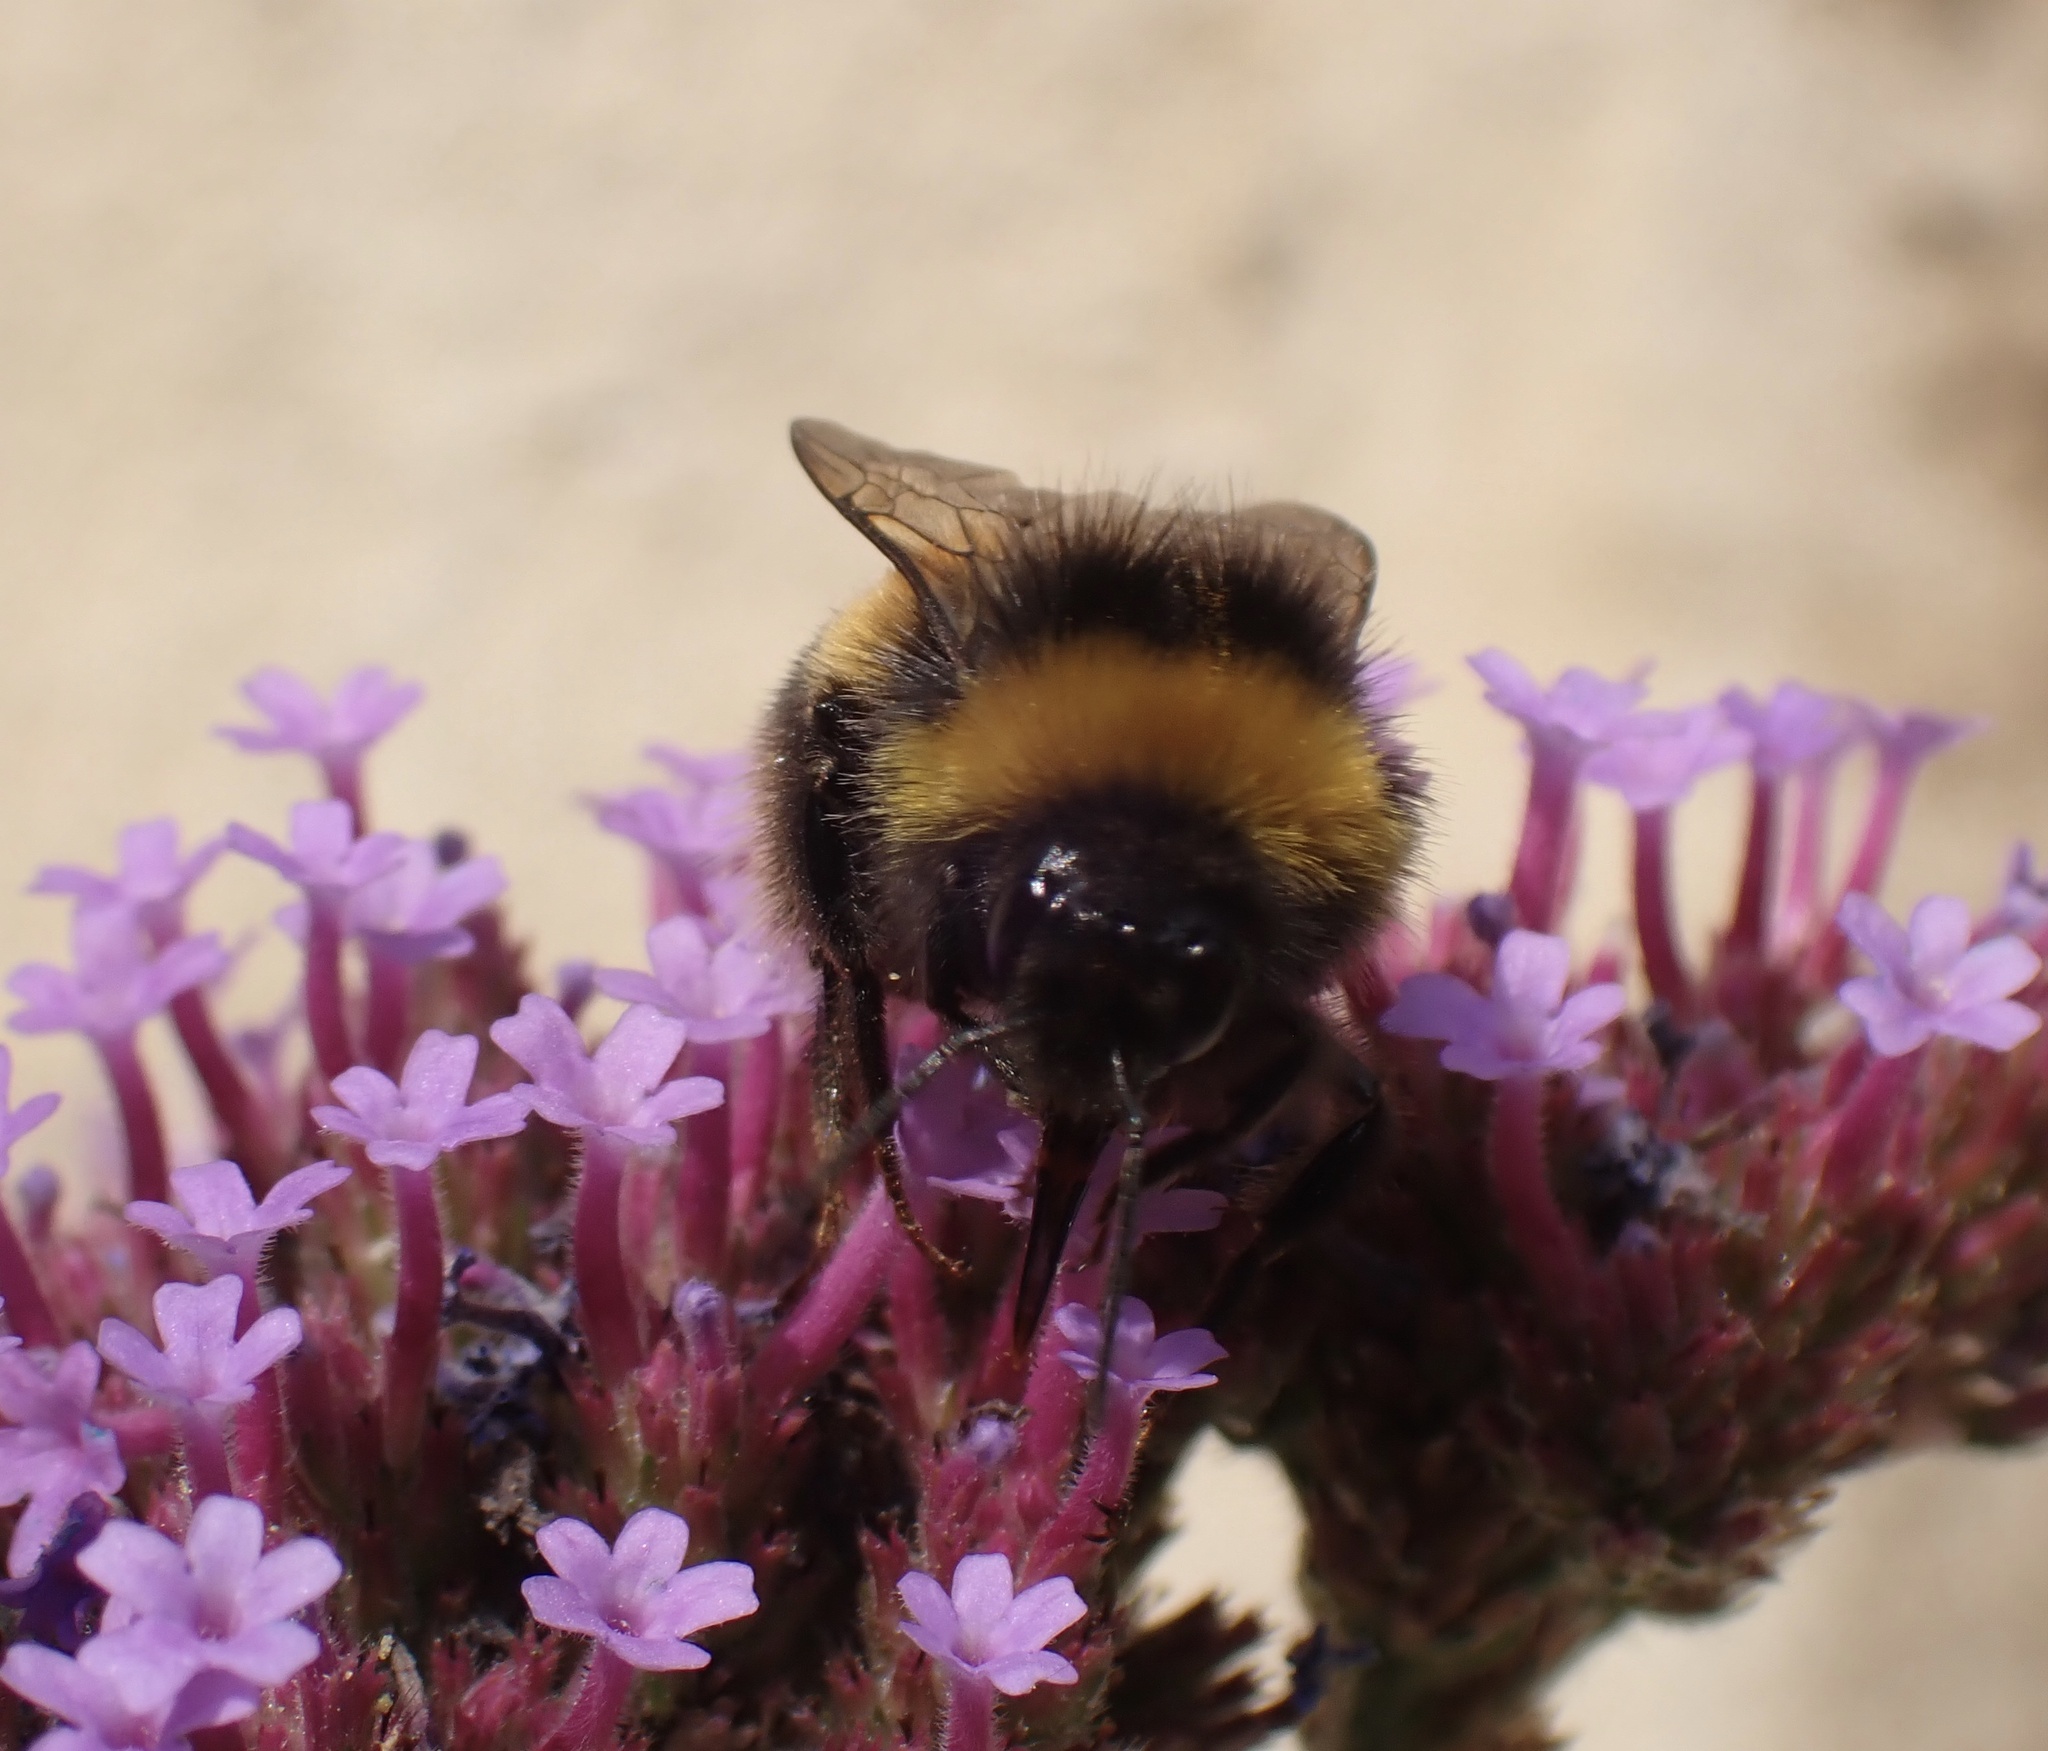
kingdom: Animalia
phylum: Arthropoda
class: Insecta
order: Hymenoptera
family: Apidae
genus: Bombus
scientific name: Bombus terrestris
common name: Buff-tailed bumblebee
